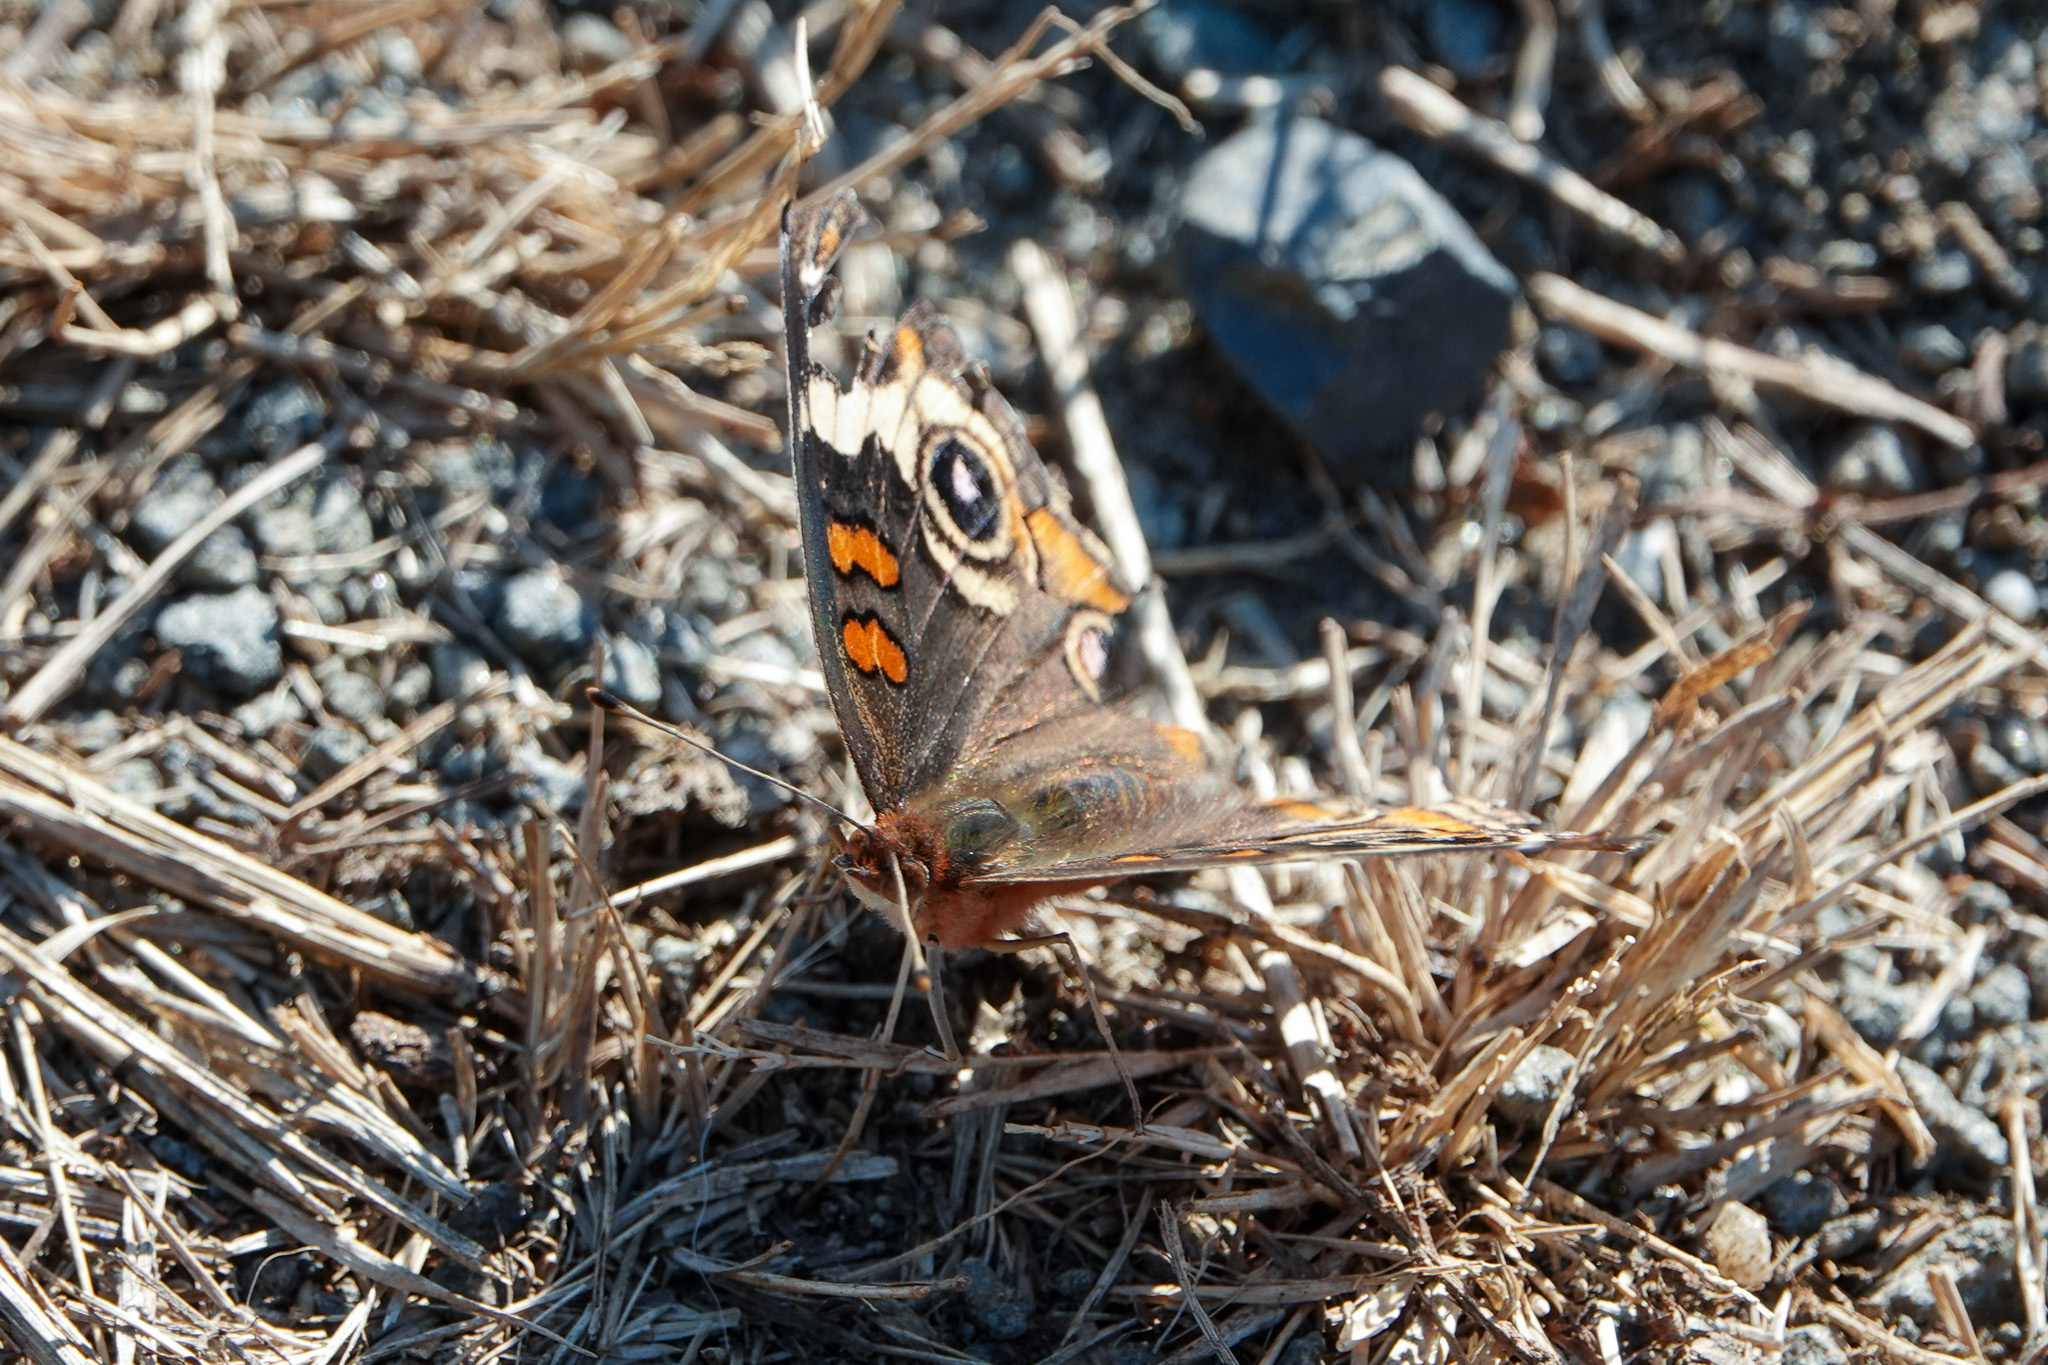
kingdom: Animalia
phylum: Arthropoda
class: Insecta
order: Lepidoptera
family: Nymphalidae
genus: Junonia
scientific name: Junonia coenia
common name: Common buckeye
